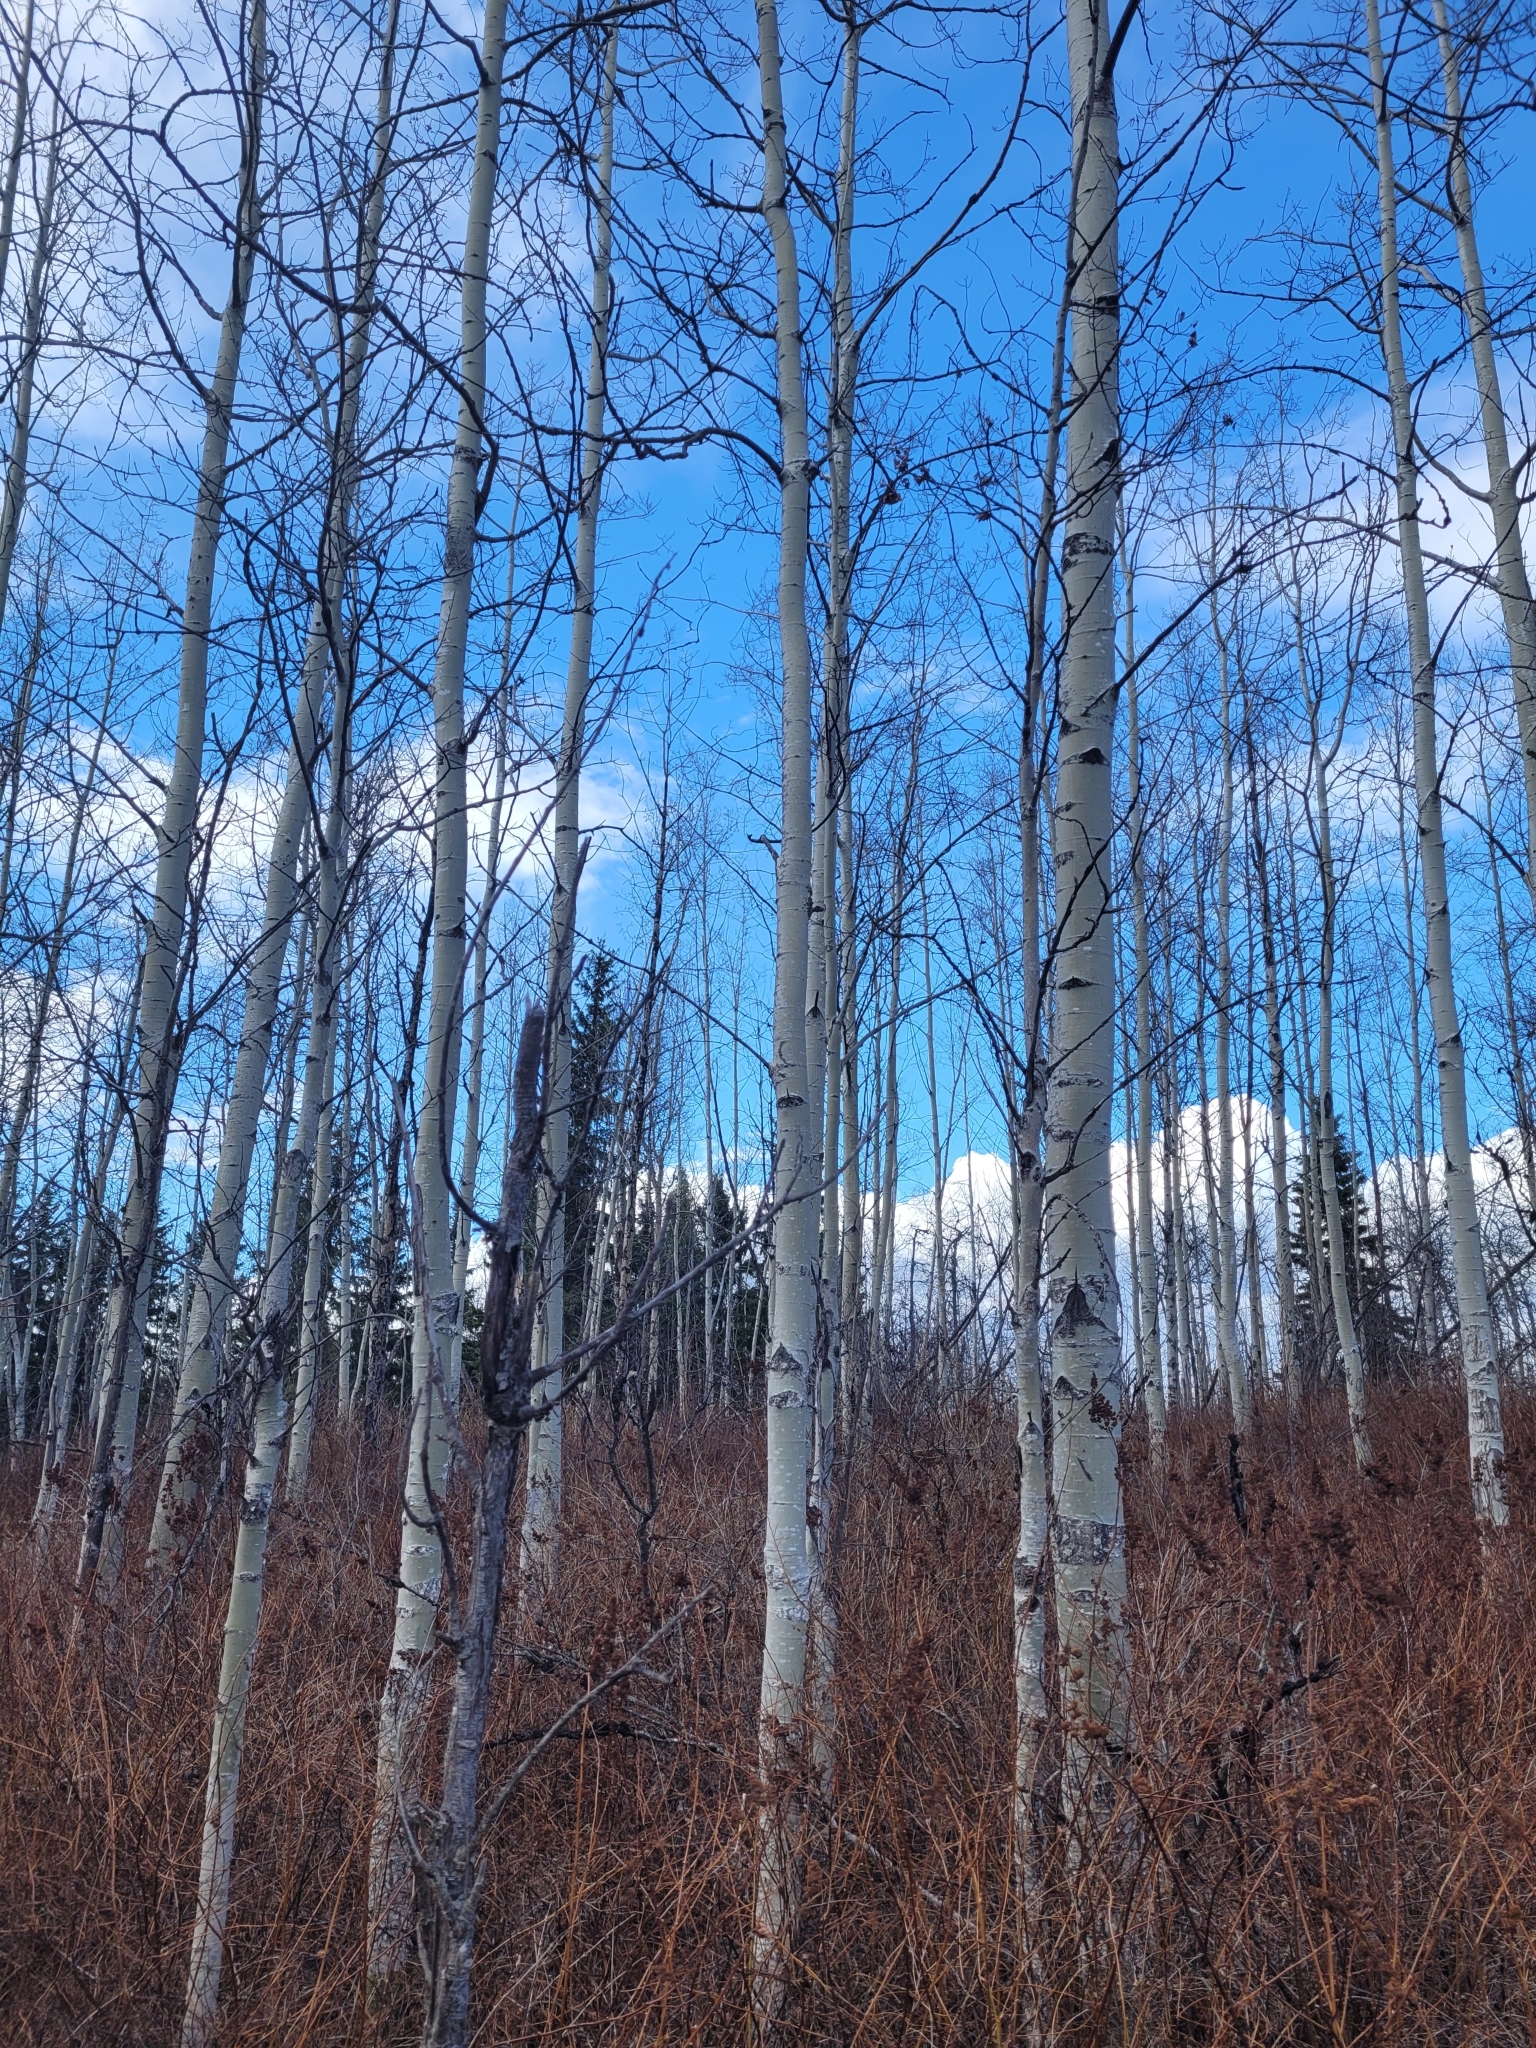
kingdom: Plantae
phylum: Tracheophyta
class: Magnoliopsida
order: Malpighiales
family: Salicaceae
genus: Populus
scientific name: Populus tremuloides
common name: Quaking aspen
